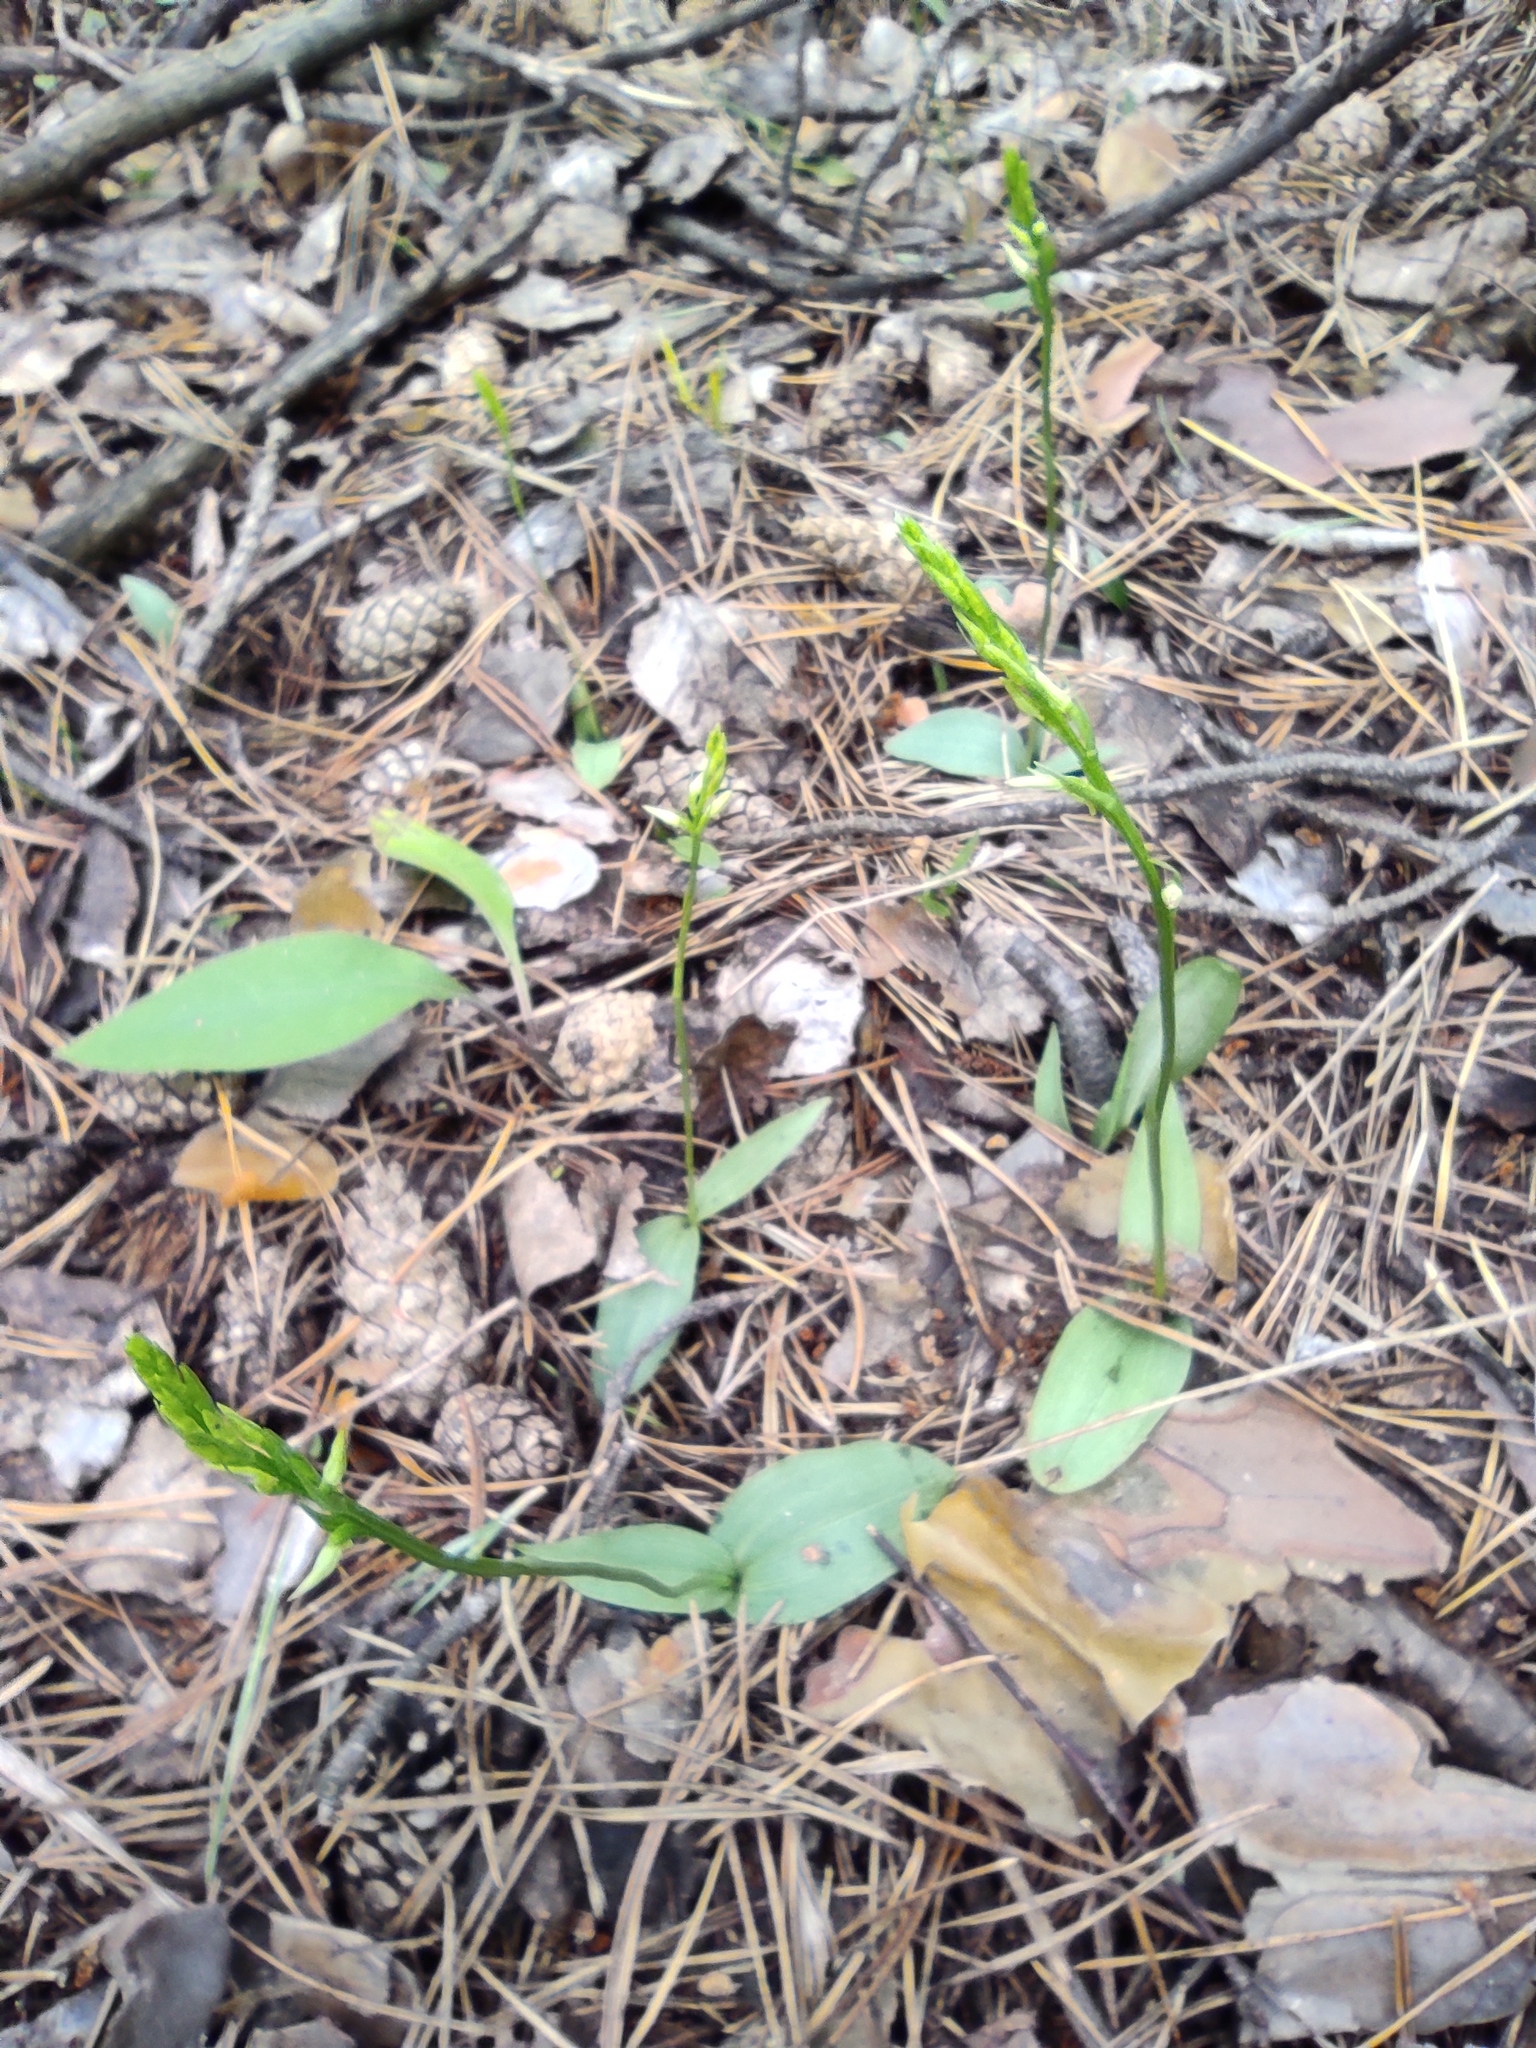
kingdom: Plantae
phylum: Tracheophyta
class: Liliopsida
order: Asparagales
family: Orchidaceae
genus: Hemipilia
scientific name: Hemipilia cucullata
